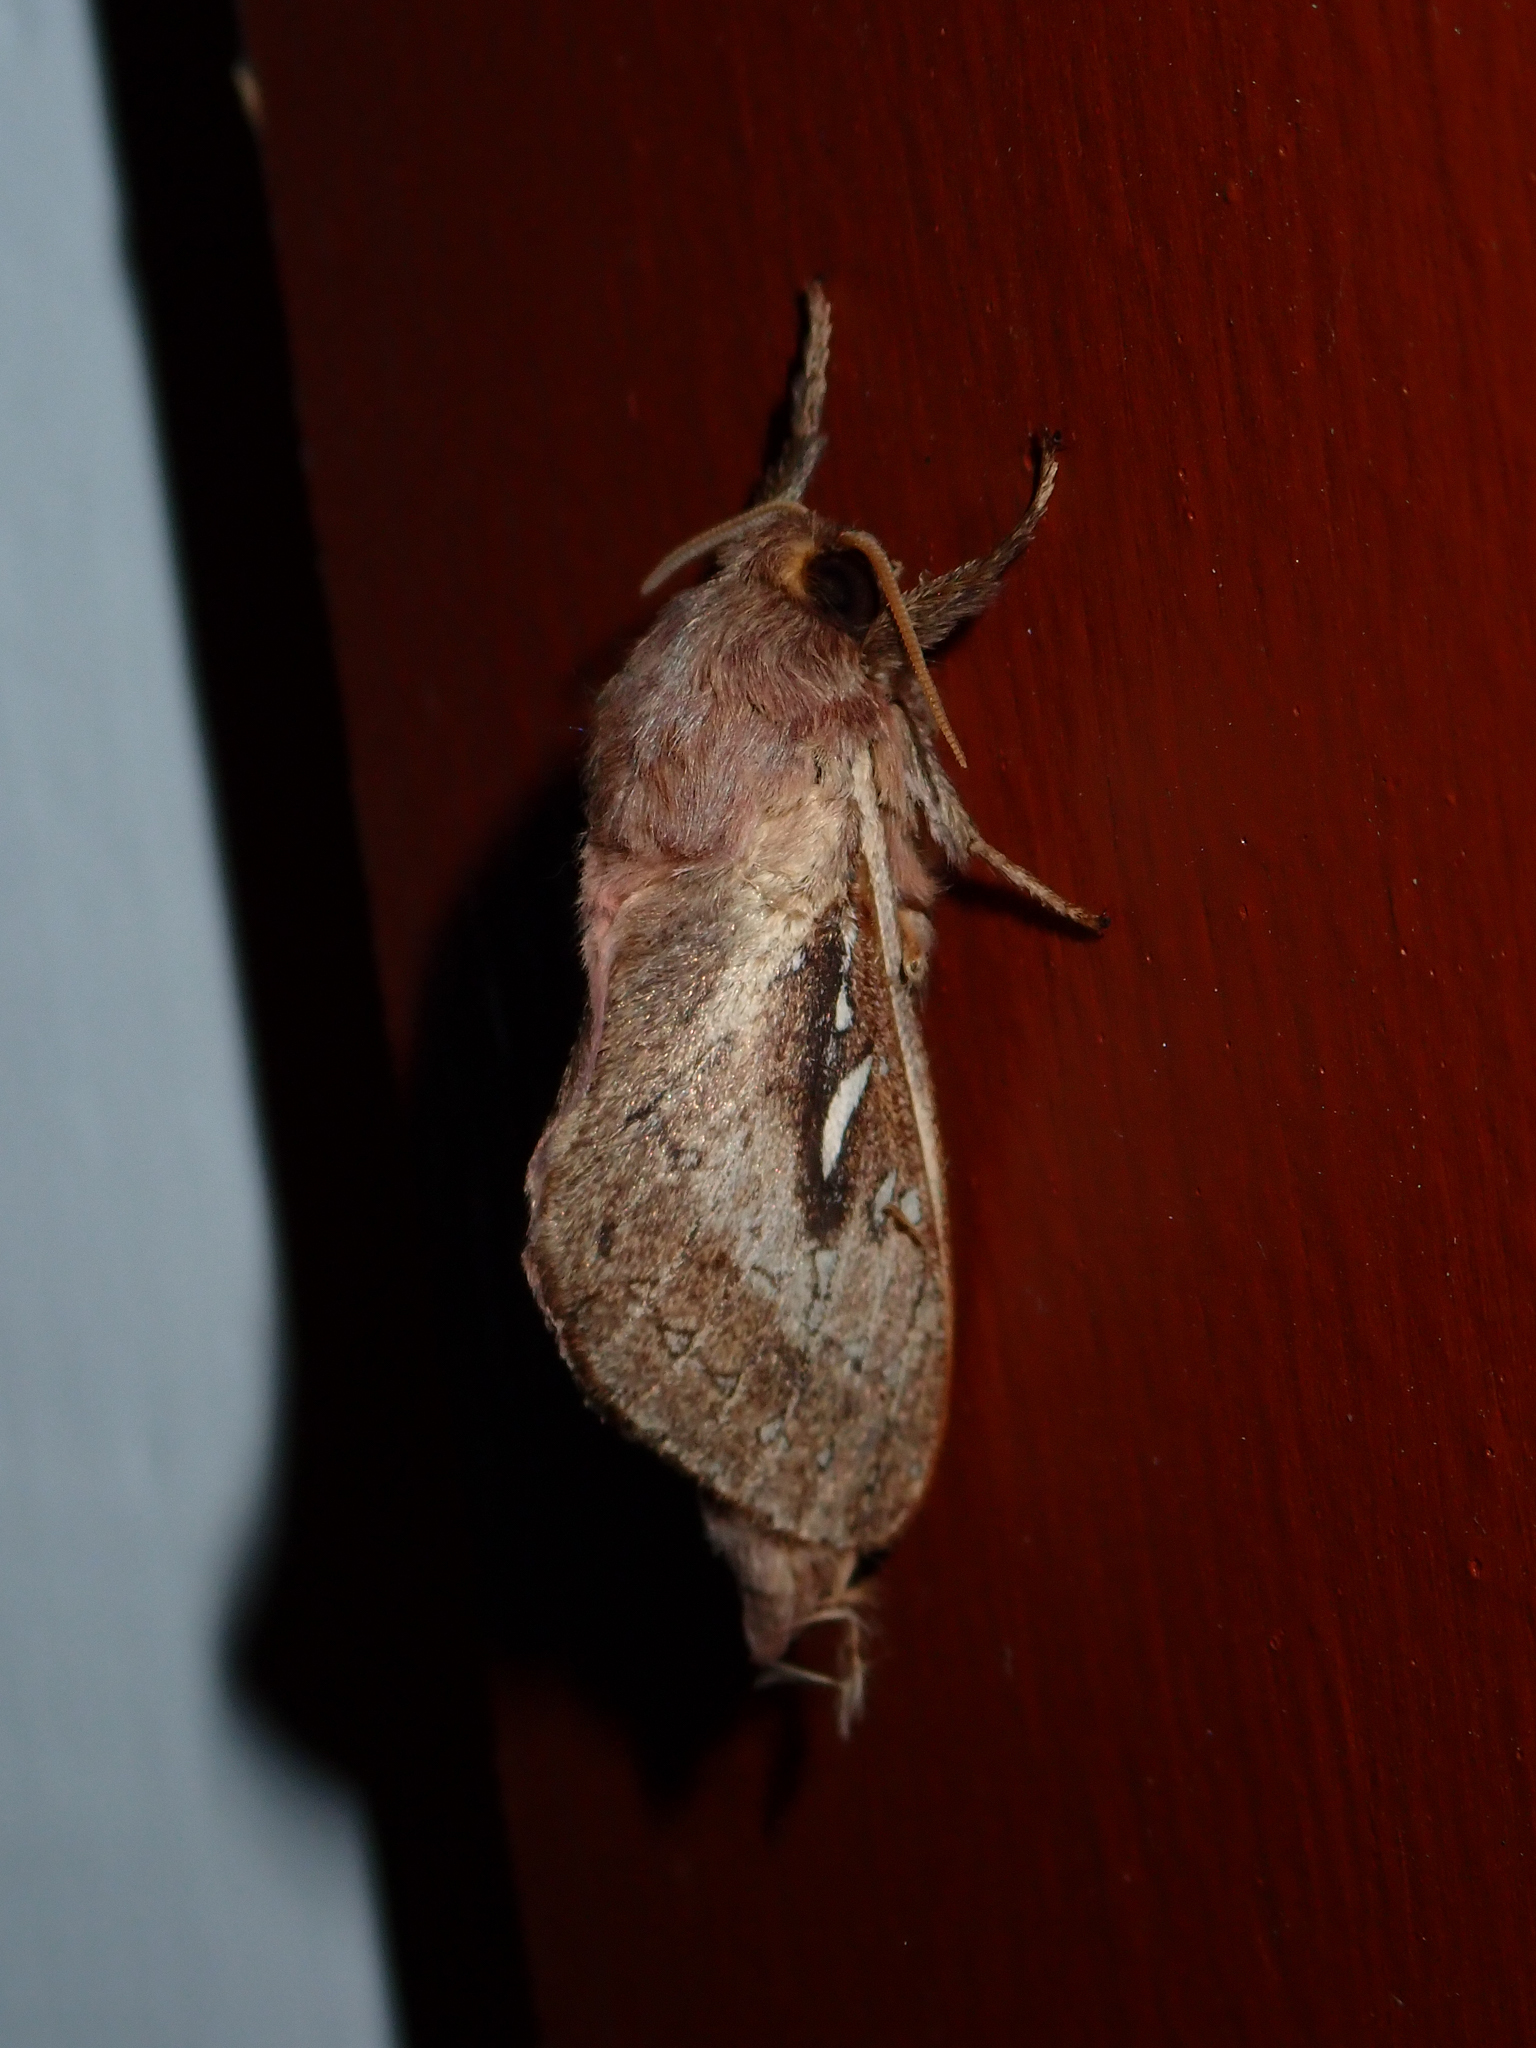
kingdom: Animalia
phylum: Arthropoda
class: Insecta
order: Lepidoptera
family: Hepialidae
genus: Wiseana
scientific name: Wiseana signata
